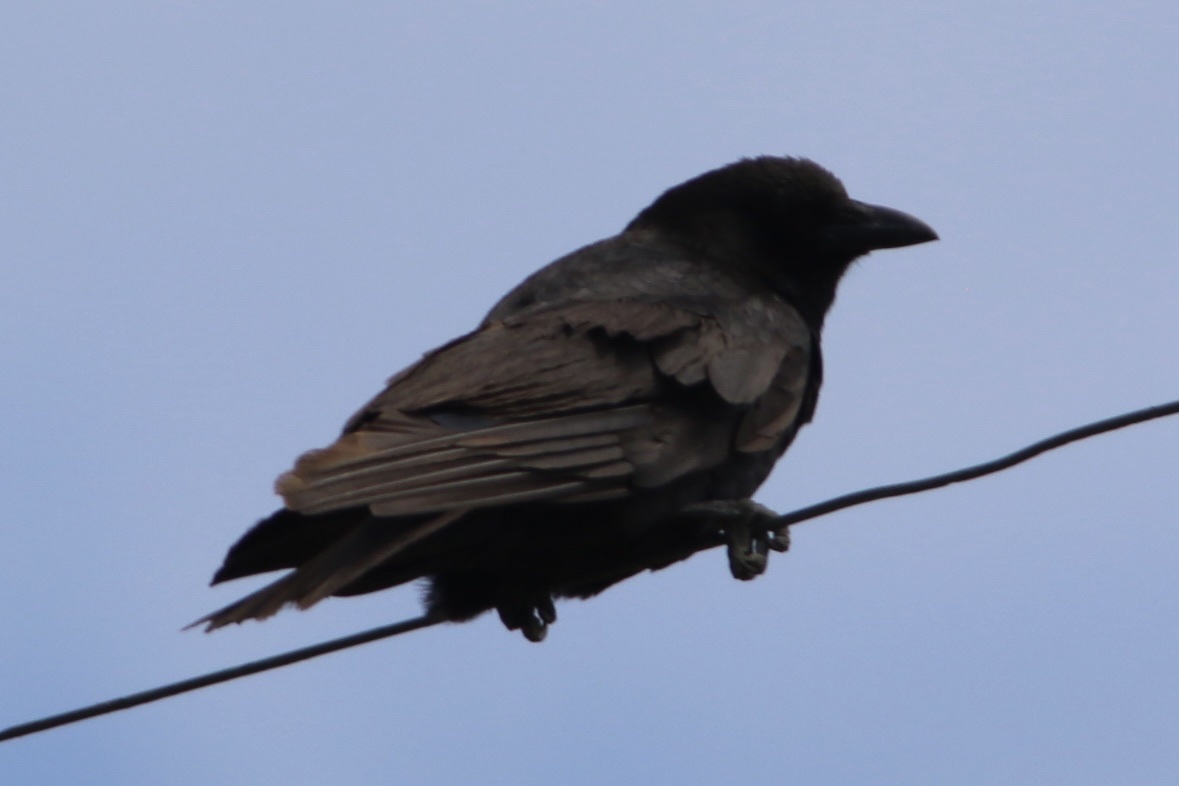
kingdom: Animalia
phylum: Chordata
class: Aves
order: Passeriformes
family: Corvidae
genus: Corvus
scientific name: Corvus brachyrhynchos
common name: American crow
